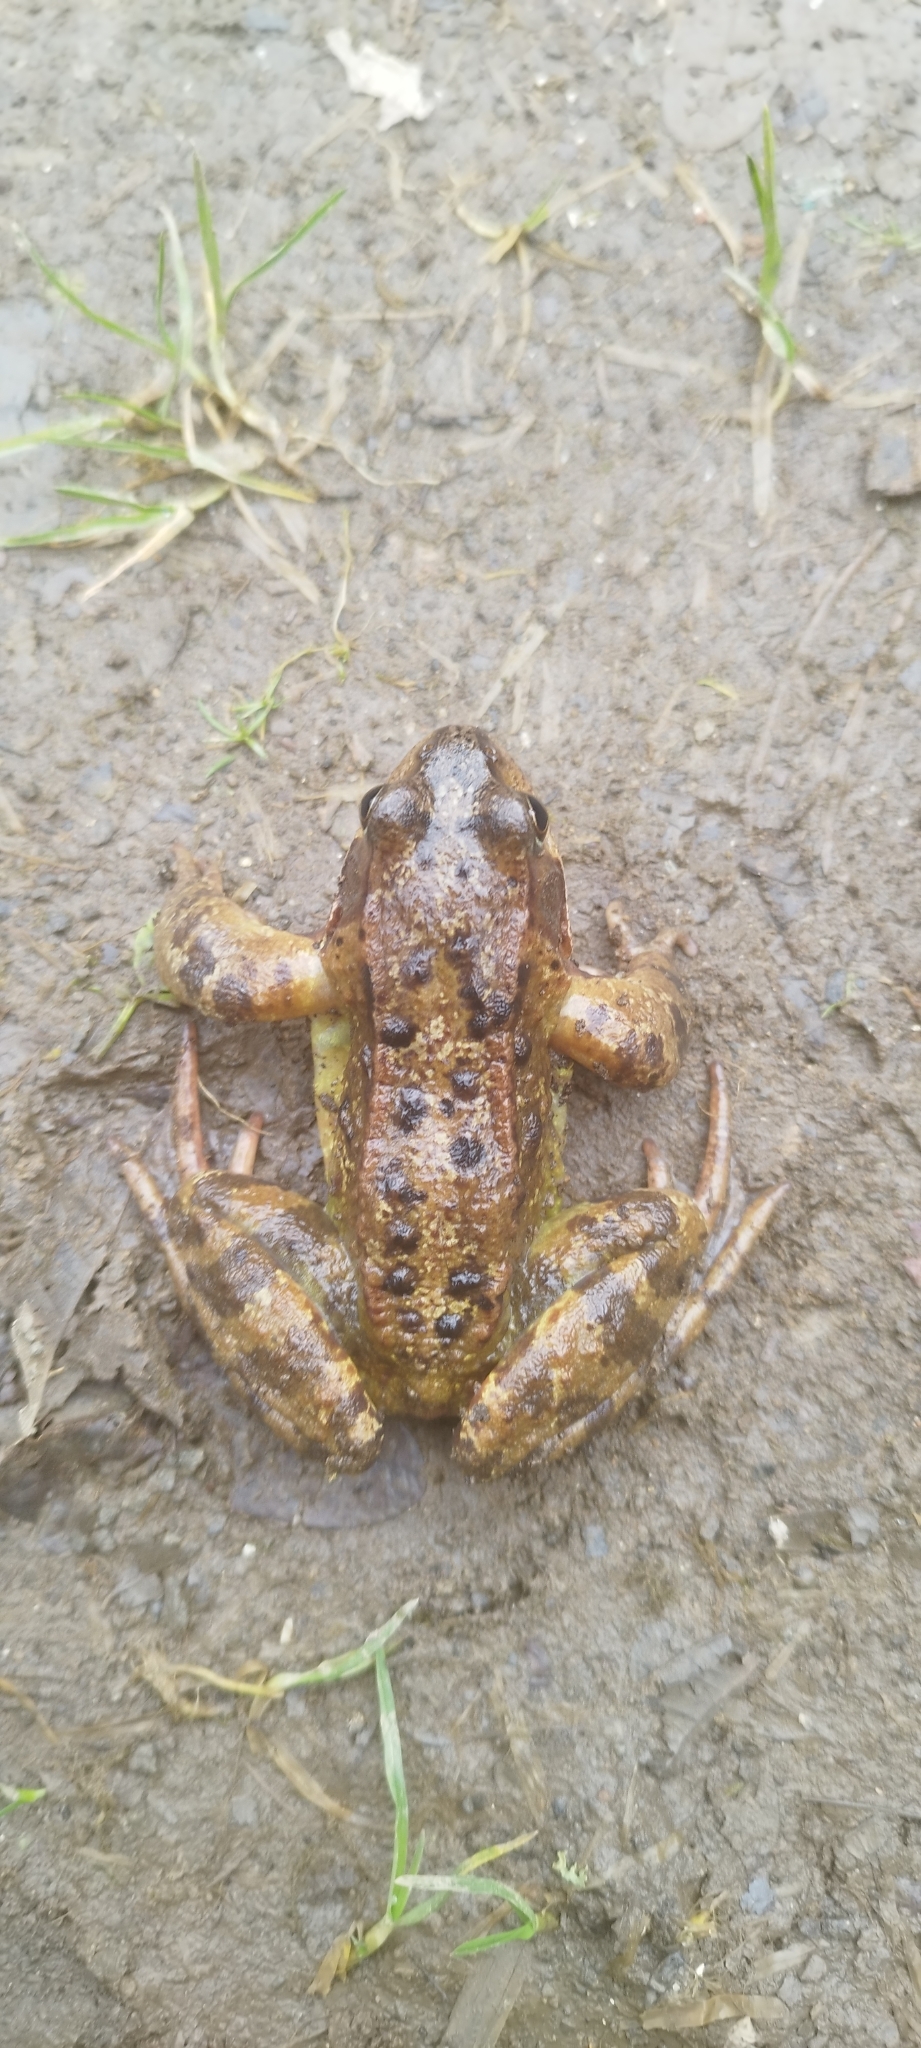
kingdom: Animalia
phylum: Chordata
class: Amphibia
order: Anura
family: Ranidae
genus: Rana
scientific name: Rana temporaria
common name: Common frog
